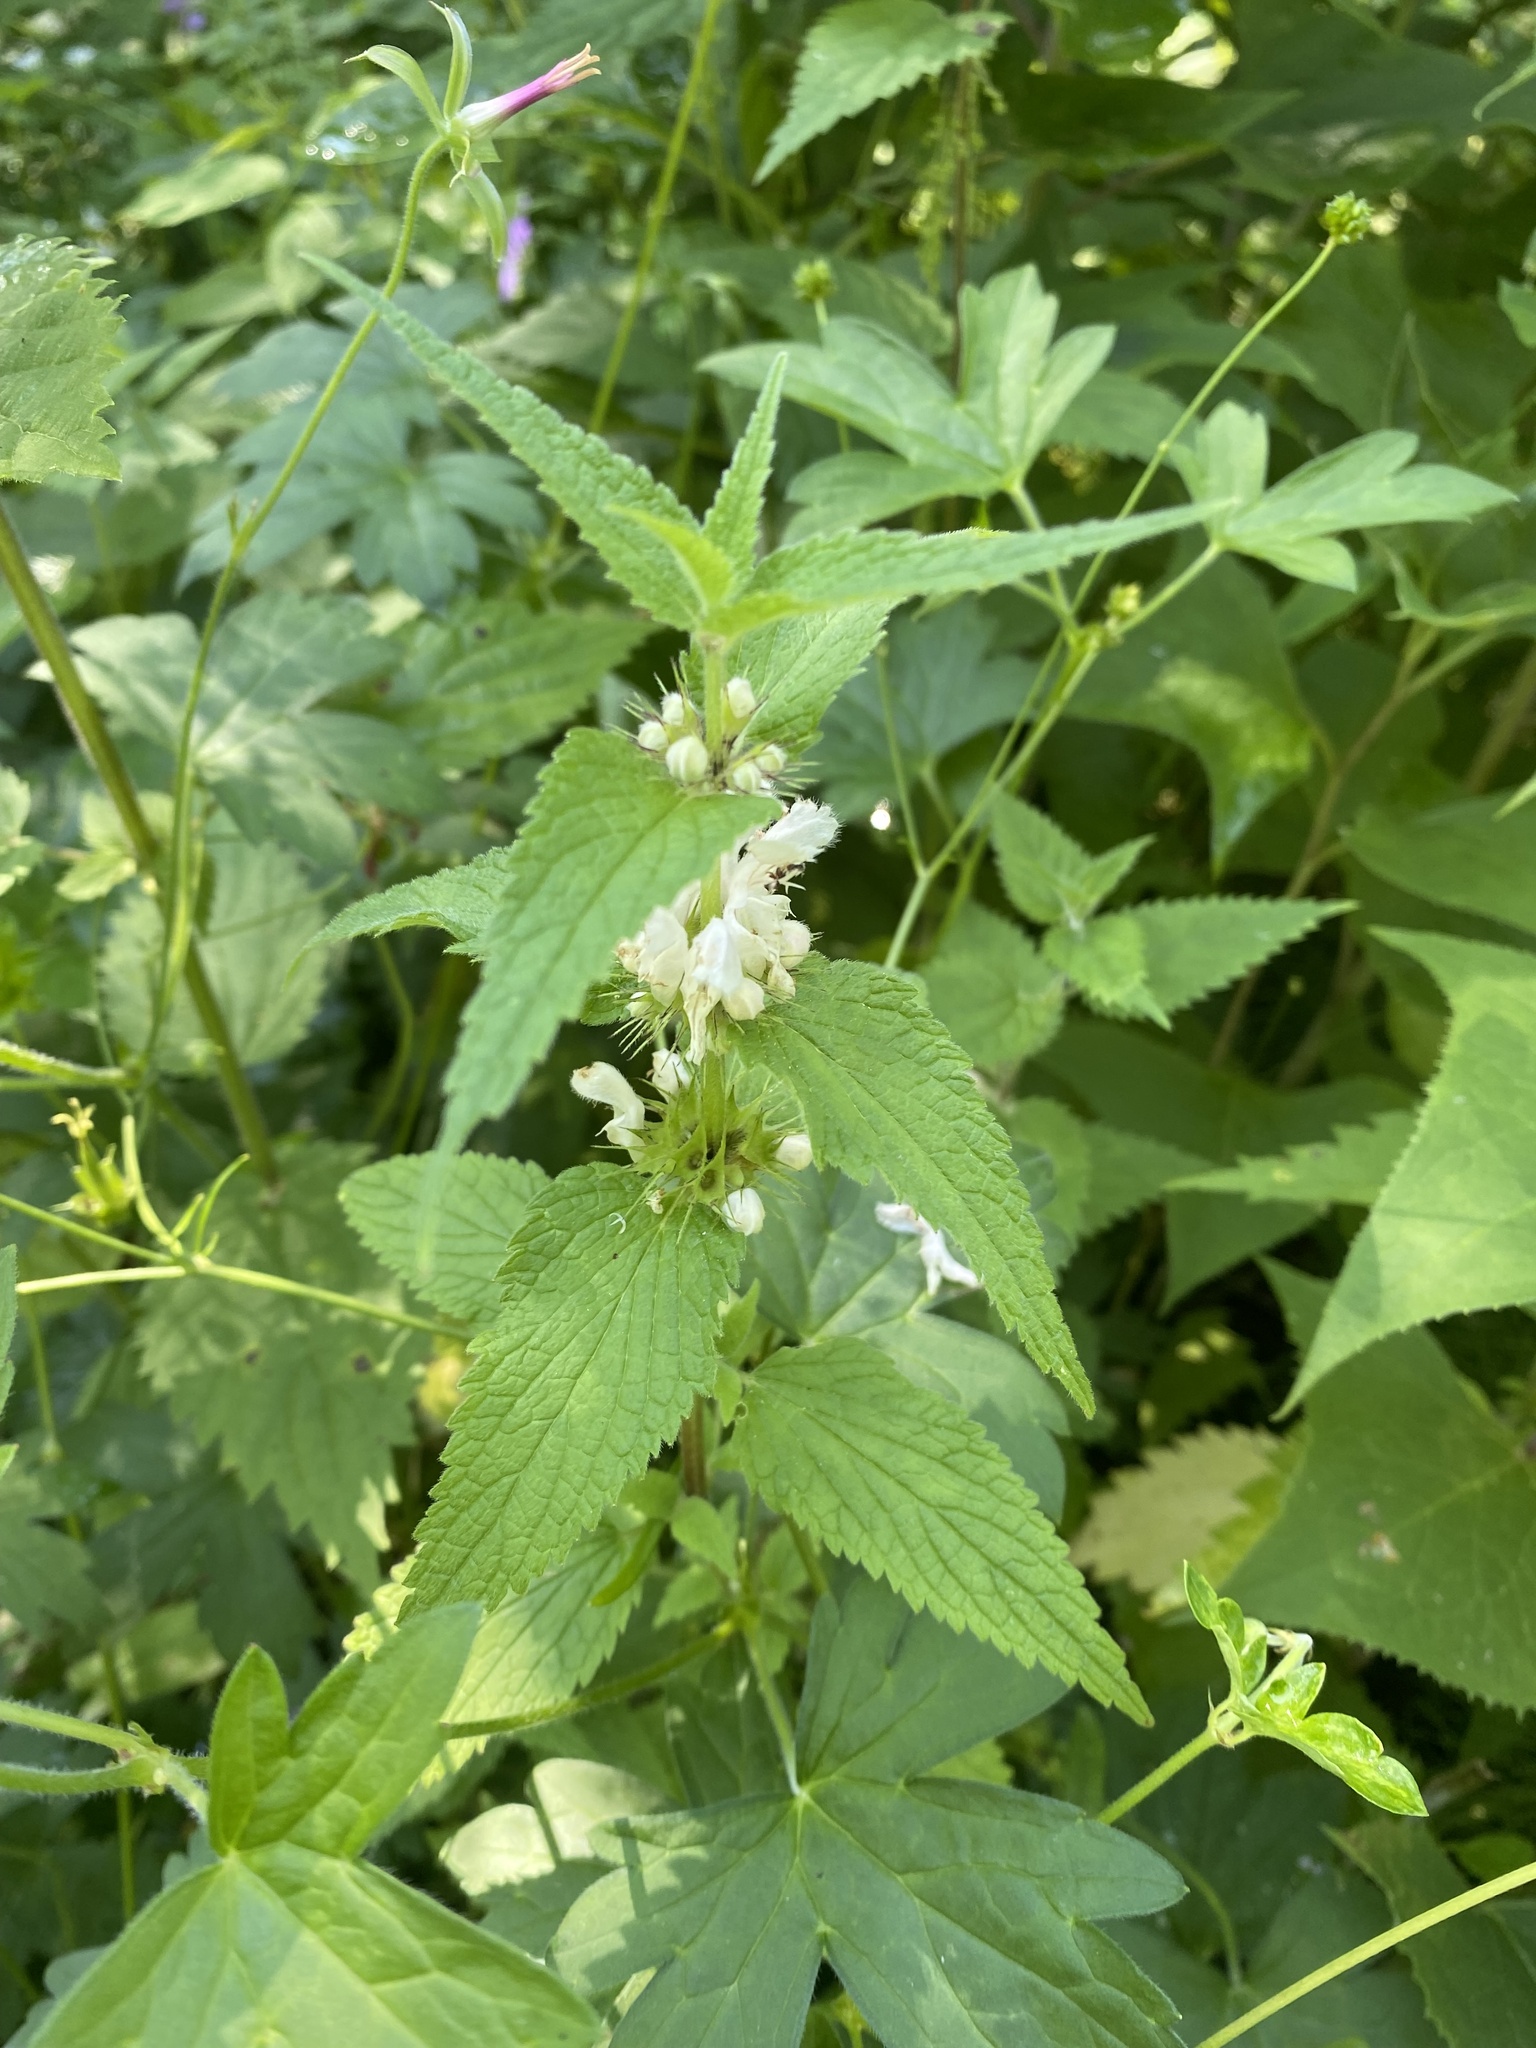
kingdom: Plantae
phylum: Tracheophyta
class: Magnoliopsida
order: Lamiales
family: Lamiaceae
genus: Lamium
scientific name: Lamium album
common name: White dead-nettle
